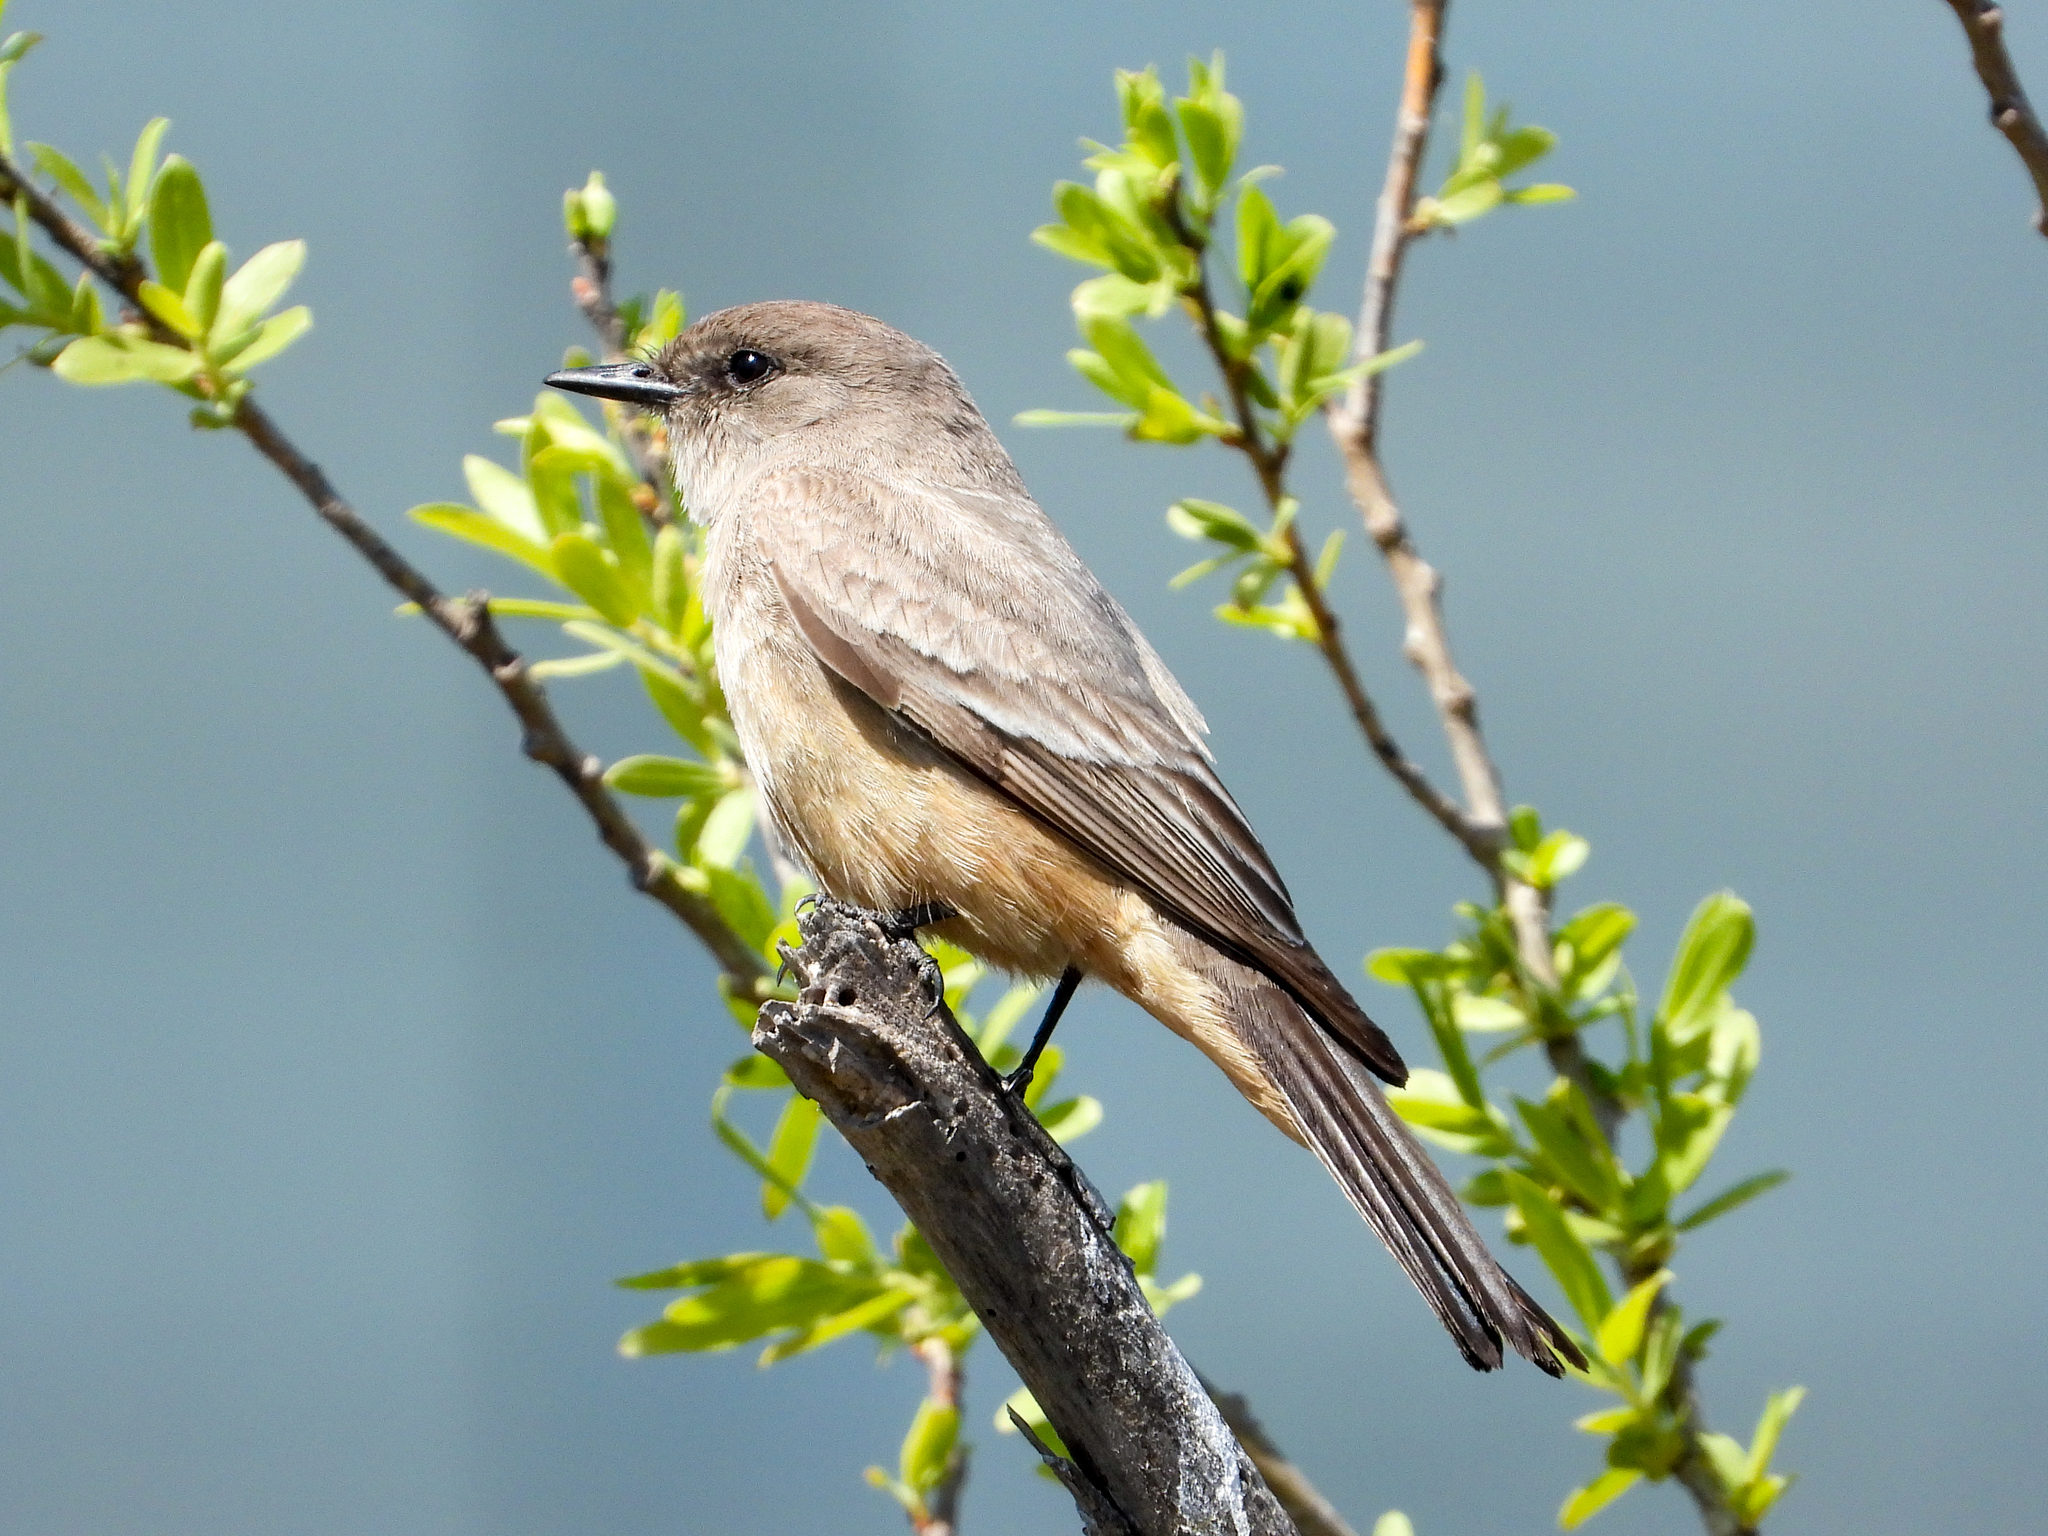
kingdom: Animalia
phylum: Chordata
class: Aves
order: Passeriformes
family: Tyrannidae
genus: Sayornis
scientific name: Sayornis saya
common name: Say's phoebe
